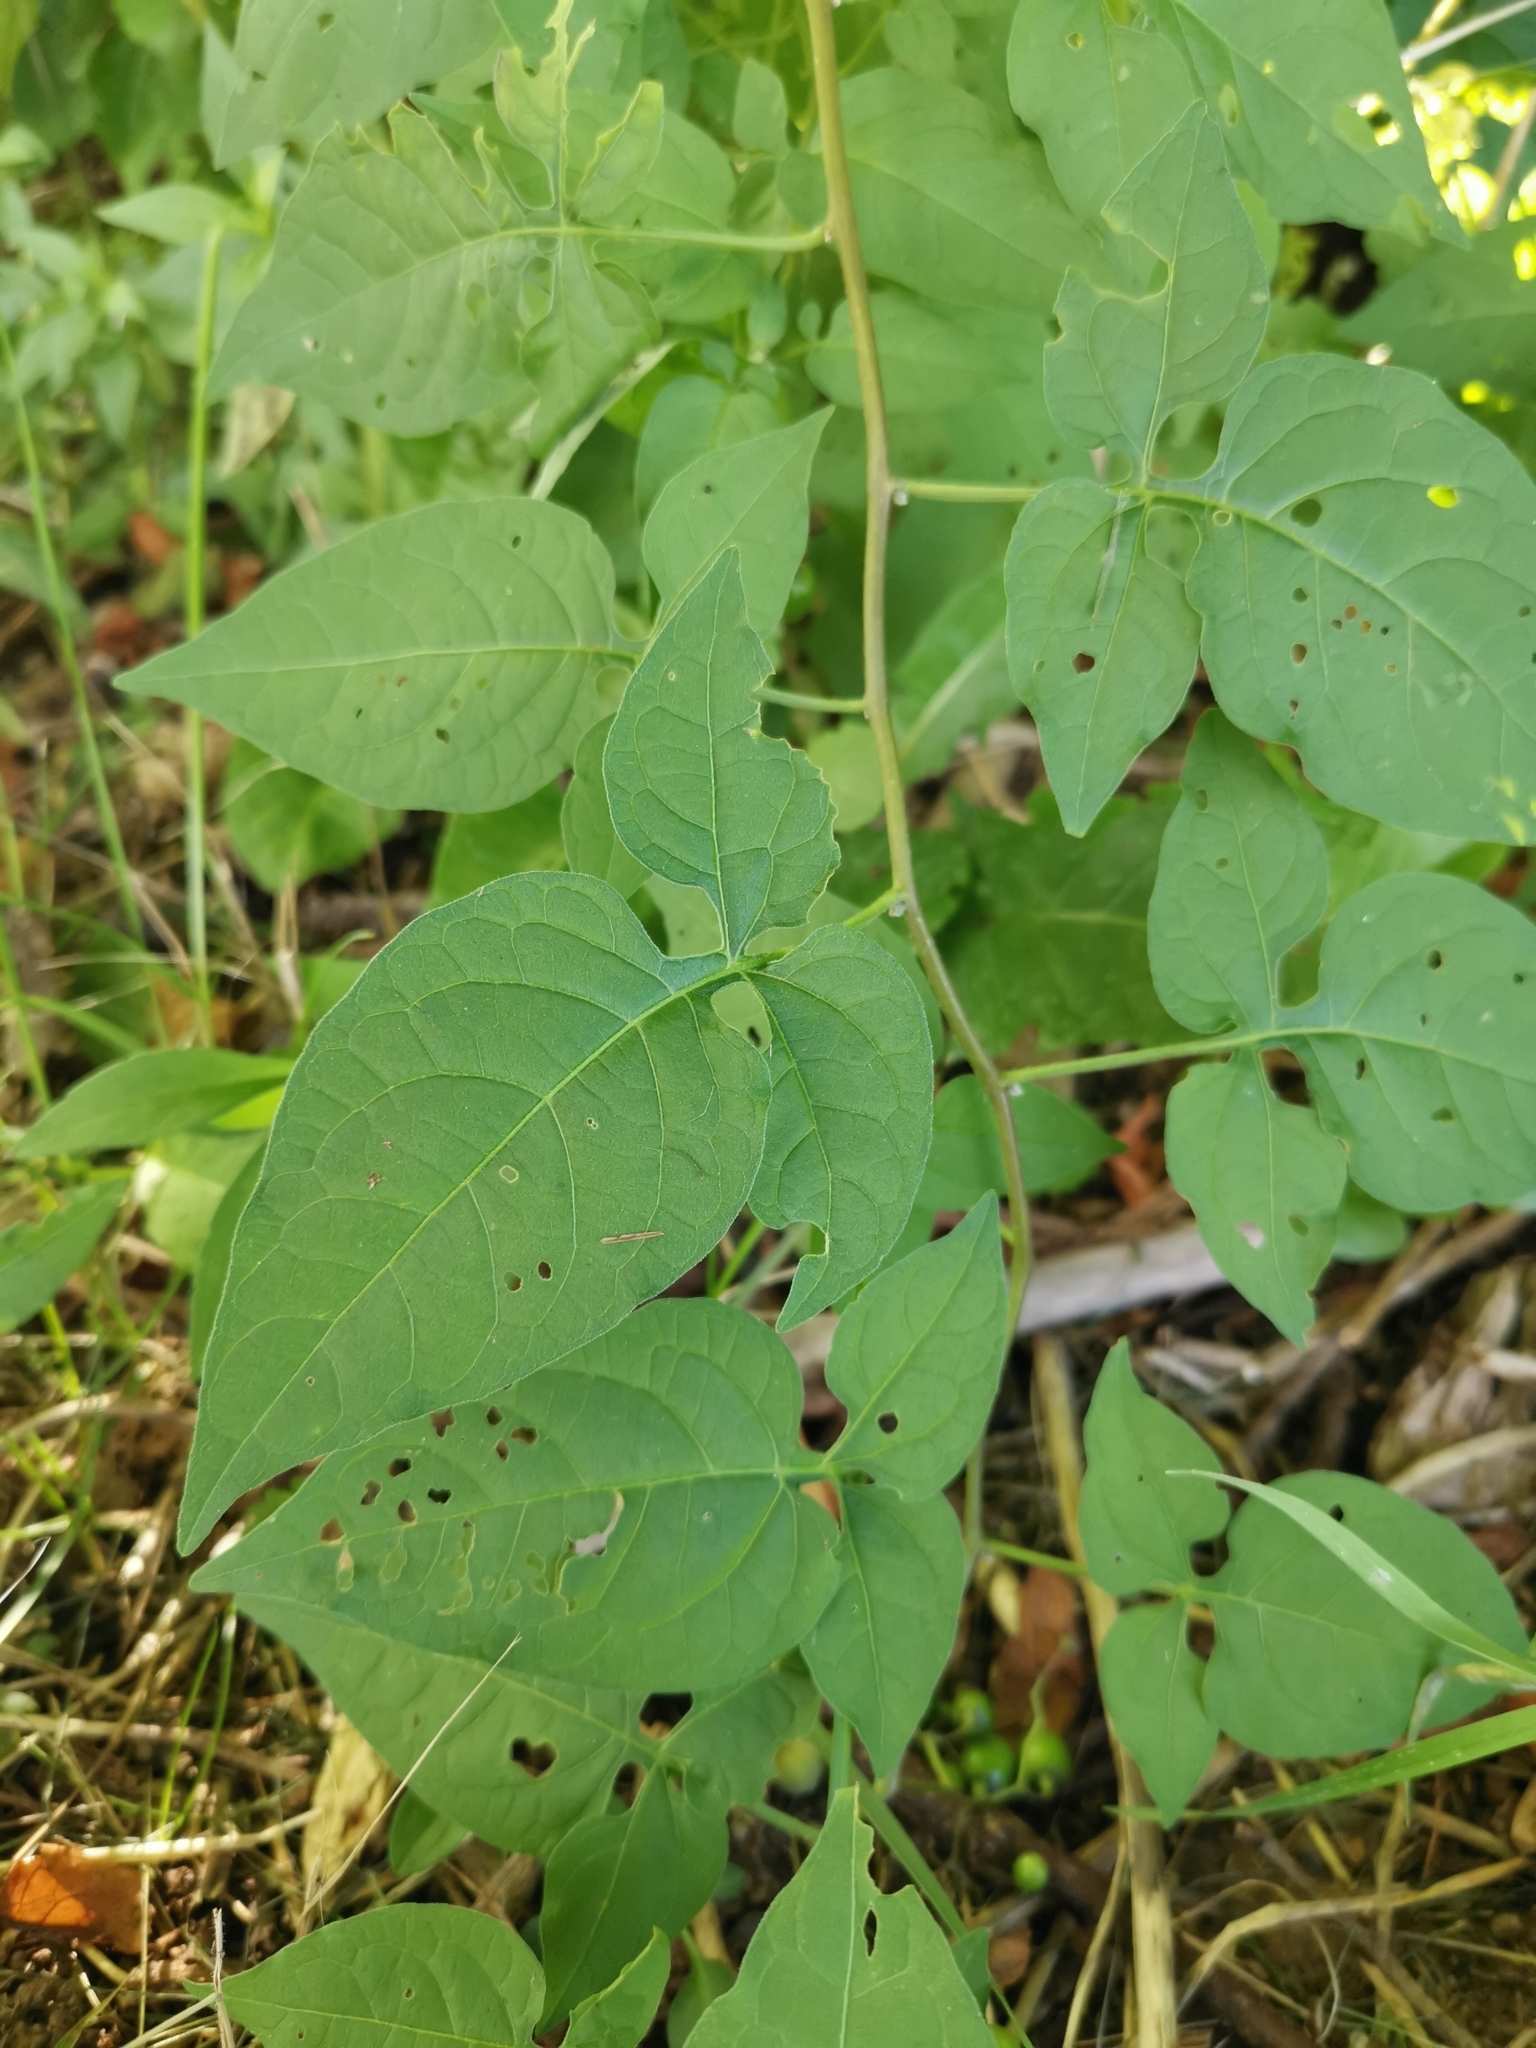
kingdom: Plantae
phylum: Tracheophyta
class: Magnoliopsida
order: Solanales
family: Solanaceae
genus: Solanum
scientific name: Solanum dulcamara
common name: Climbing nightshade
